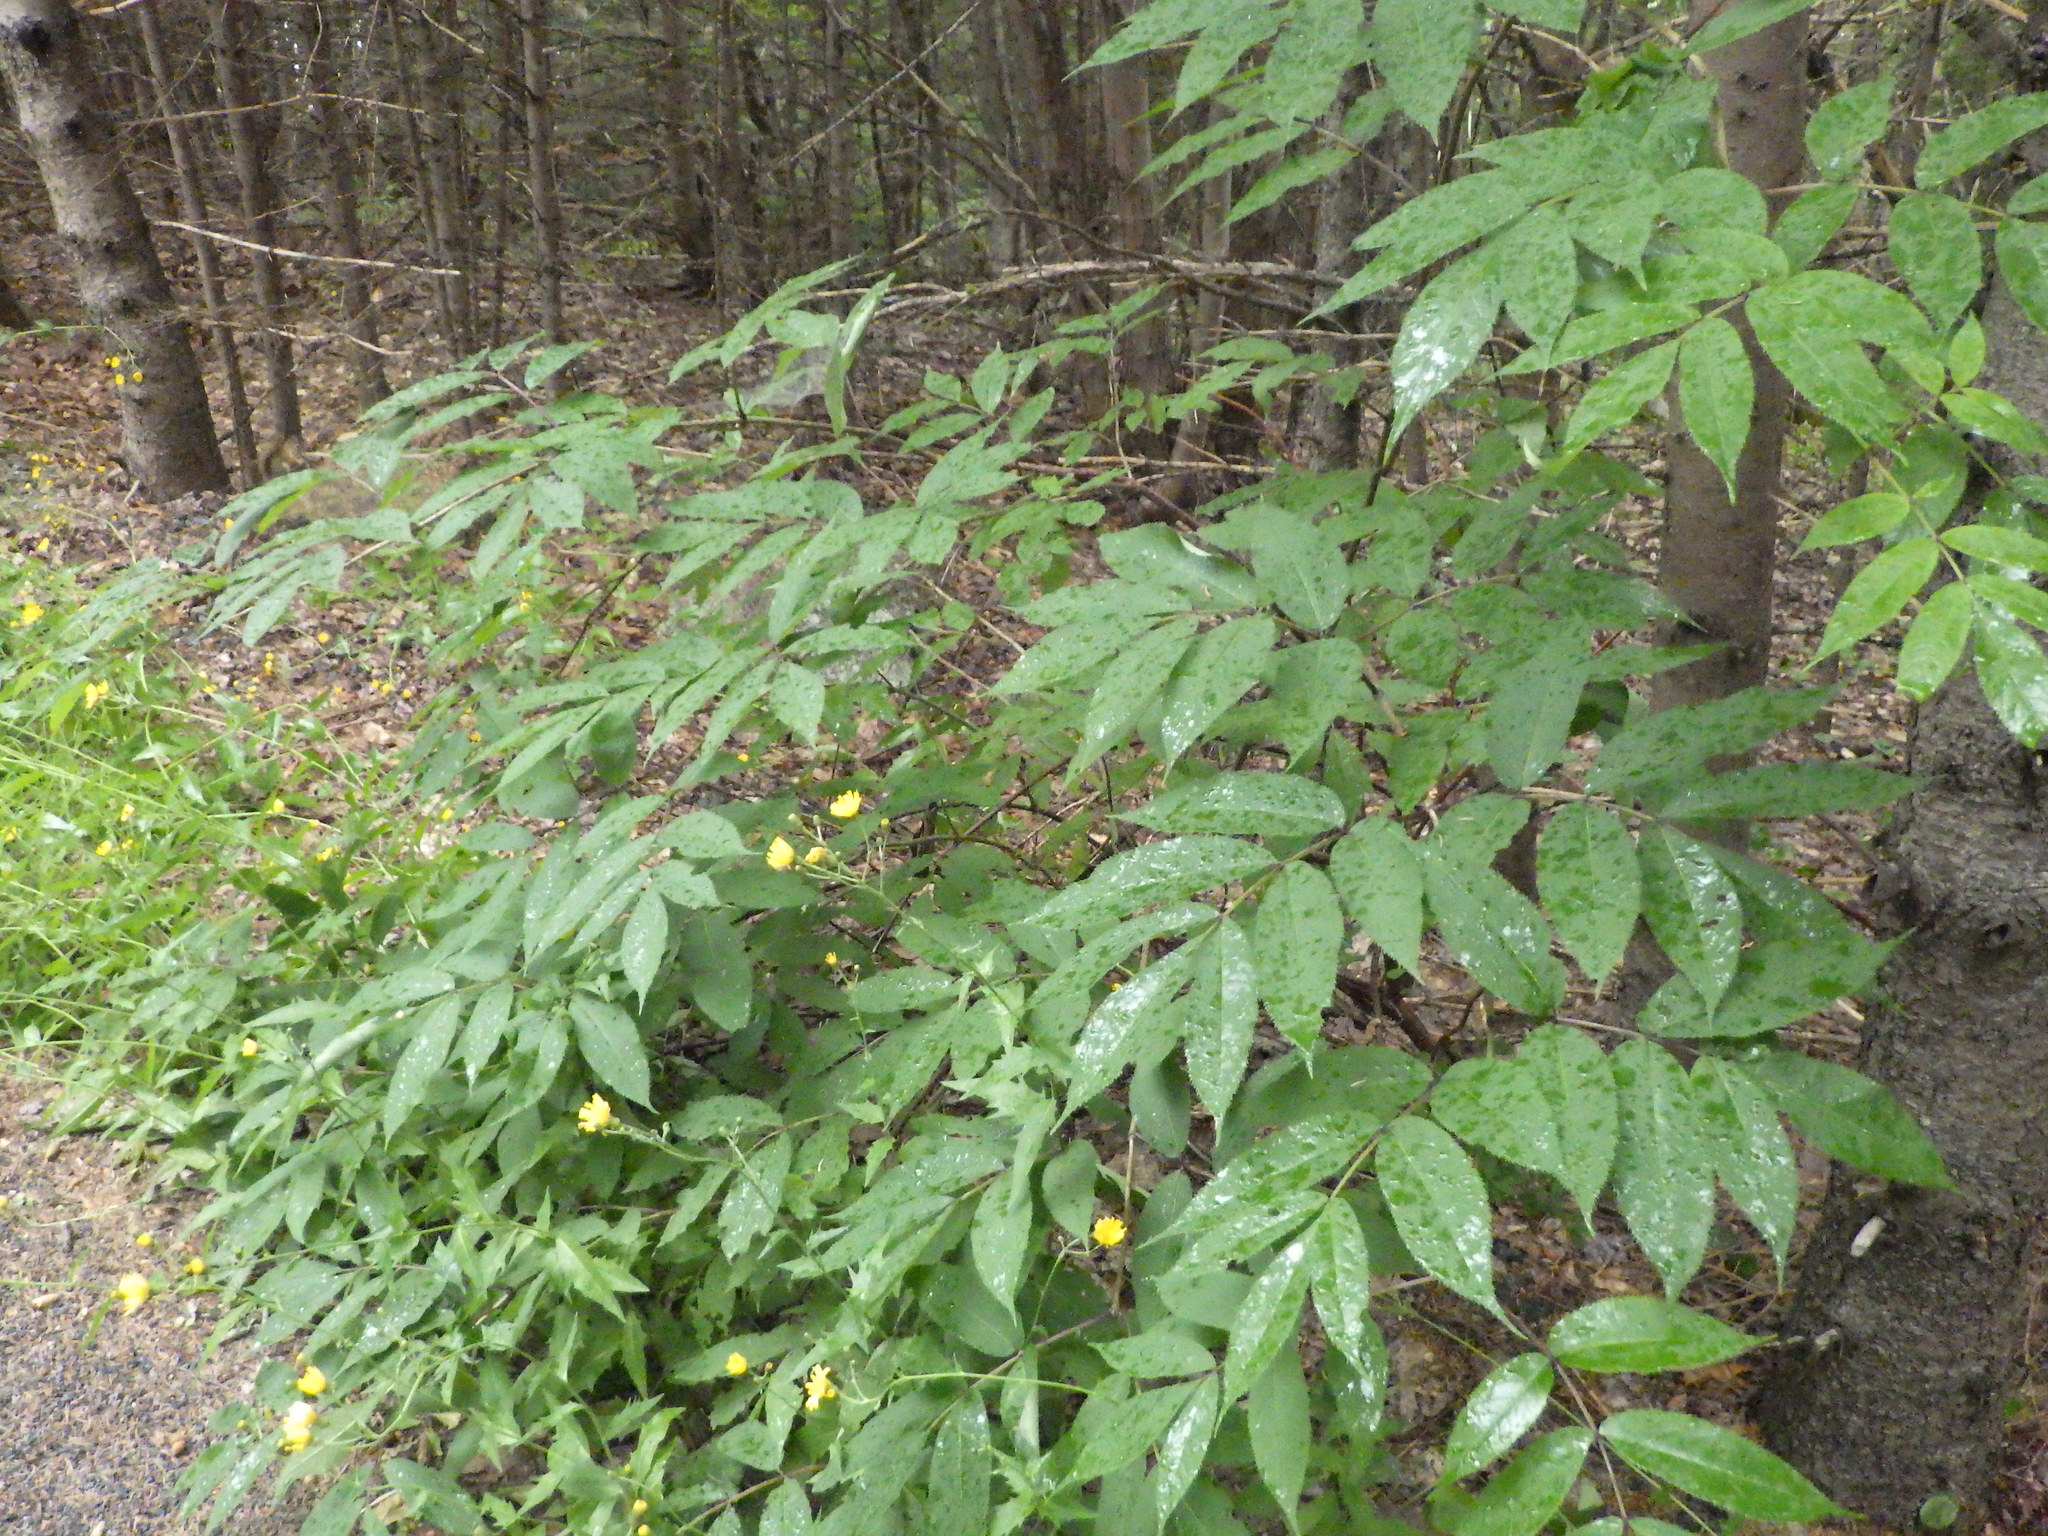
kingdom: Plantae
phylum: Tracheophyta
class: Magnoliopsida
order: Dipsacales
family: Viburnaceae
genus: Sambucus
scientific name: Sambucus racemosa
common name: Red-berried elder
